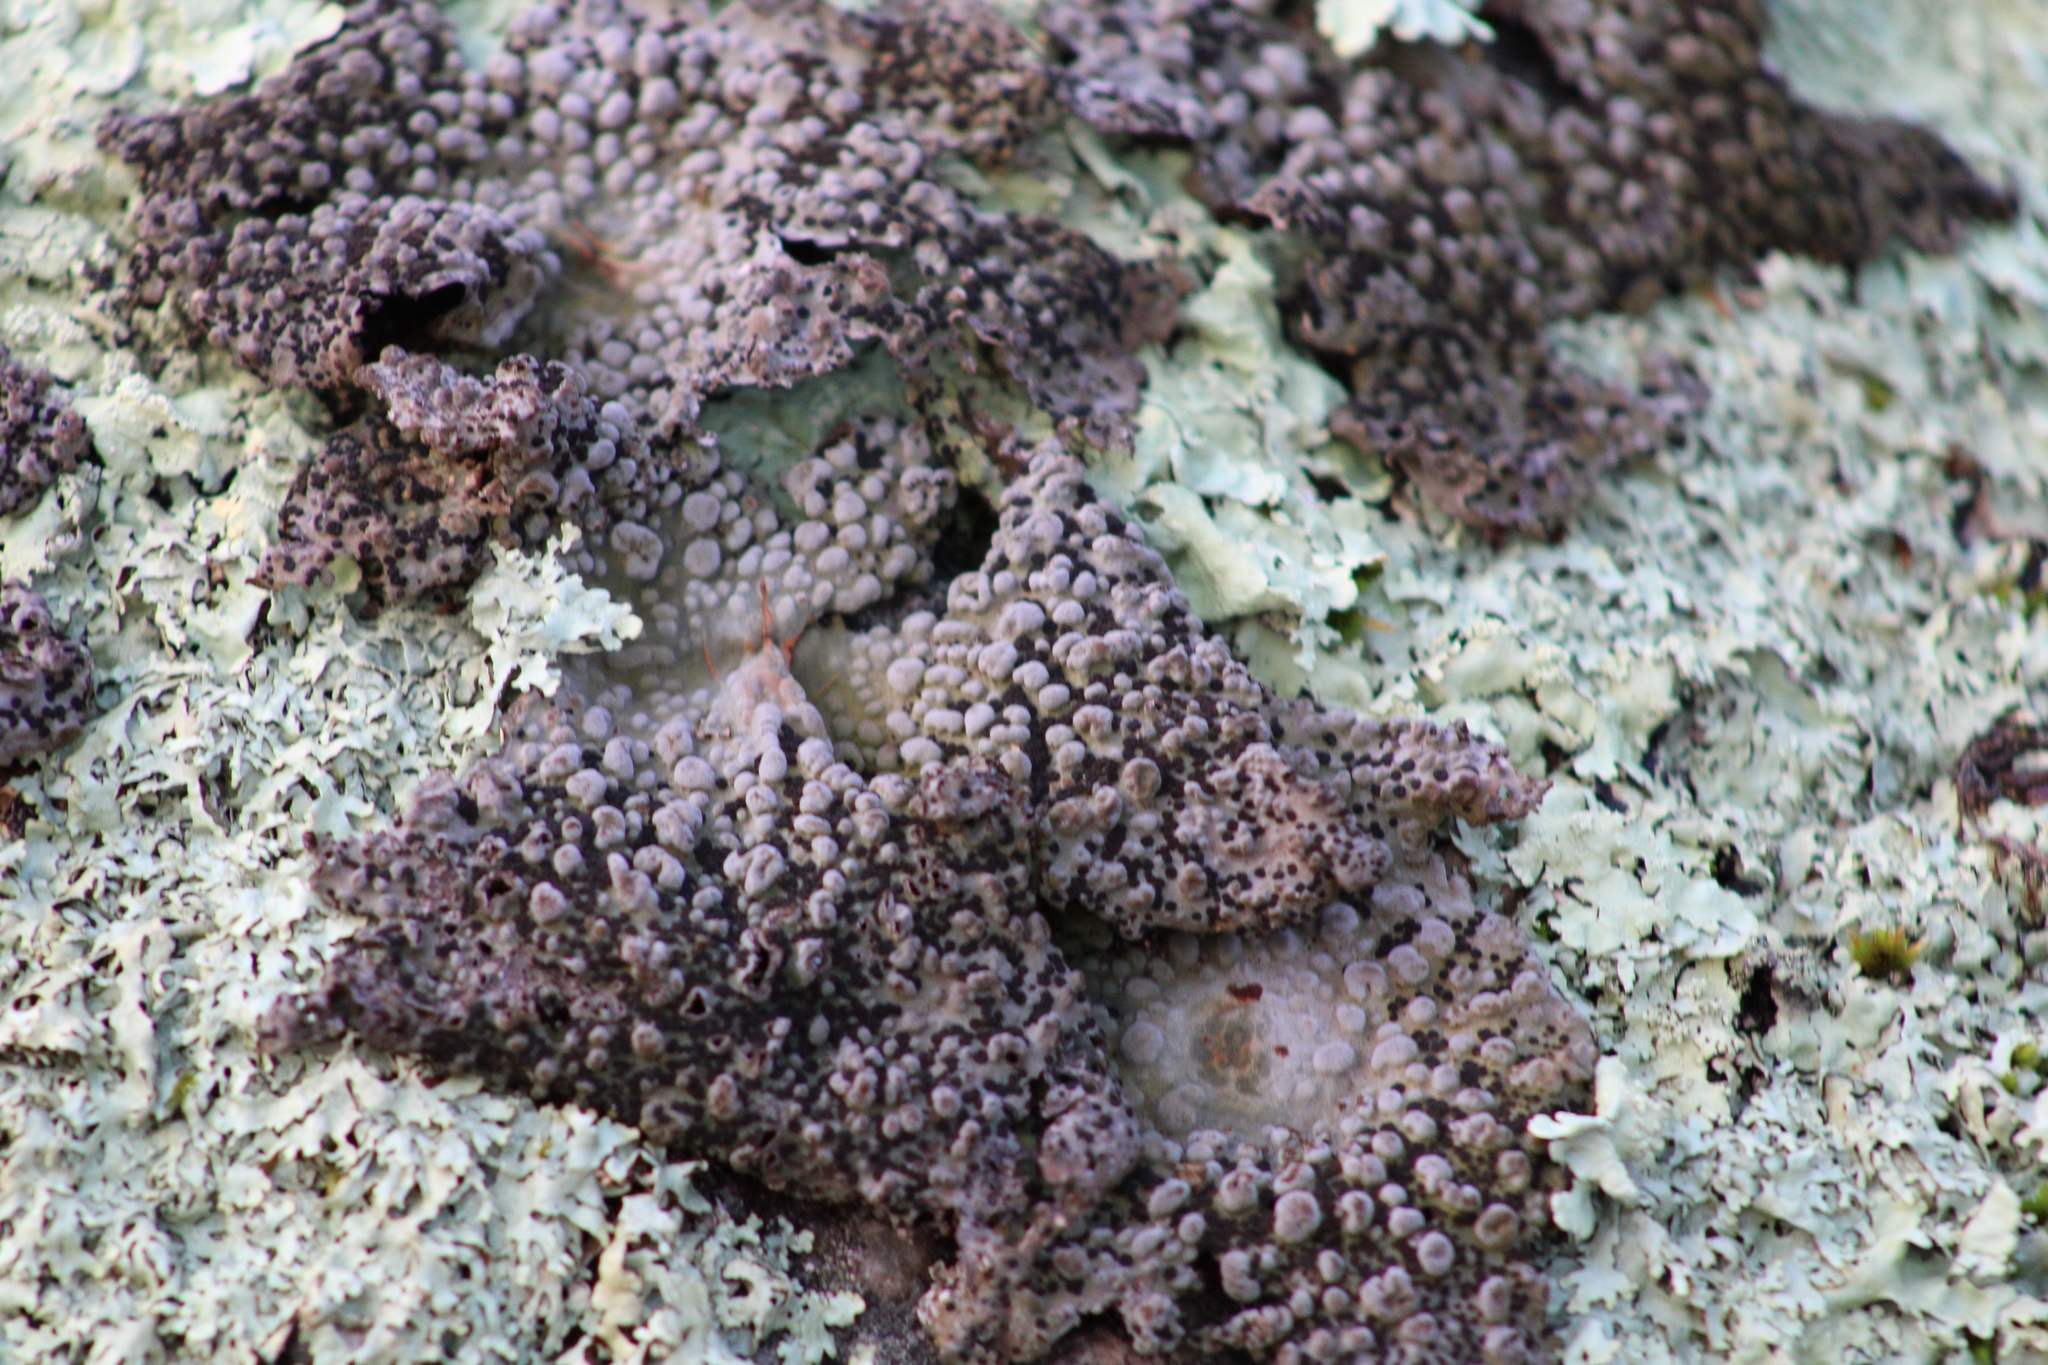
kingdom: Fungi
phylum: Ascomycota
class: Lecanoromycetes
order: Umbilicariales
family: Umbilicariaceae
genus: Lasallia
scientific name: Lasallia papulosa
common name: Common toadskin lichen
